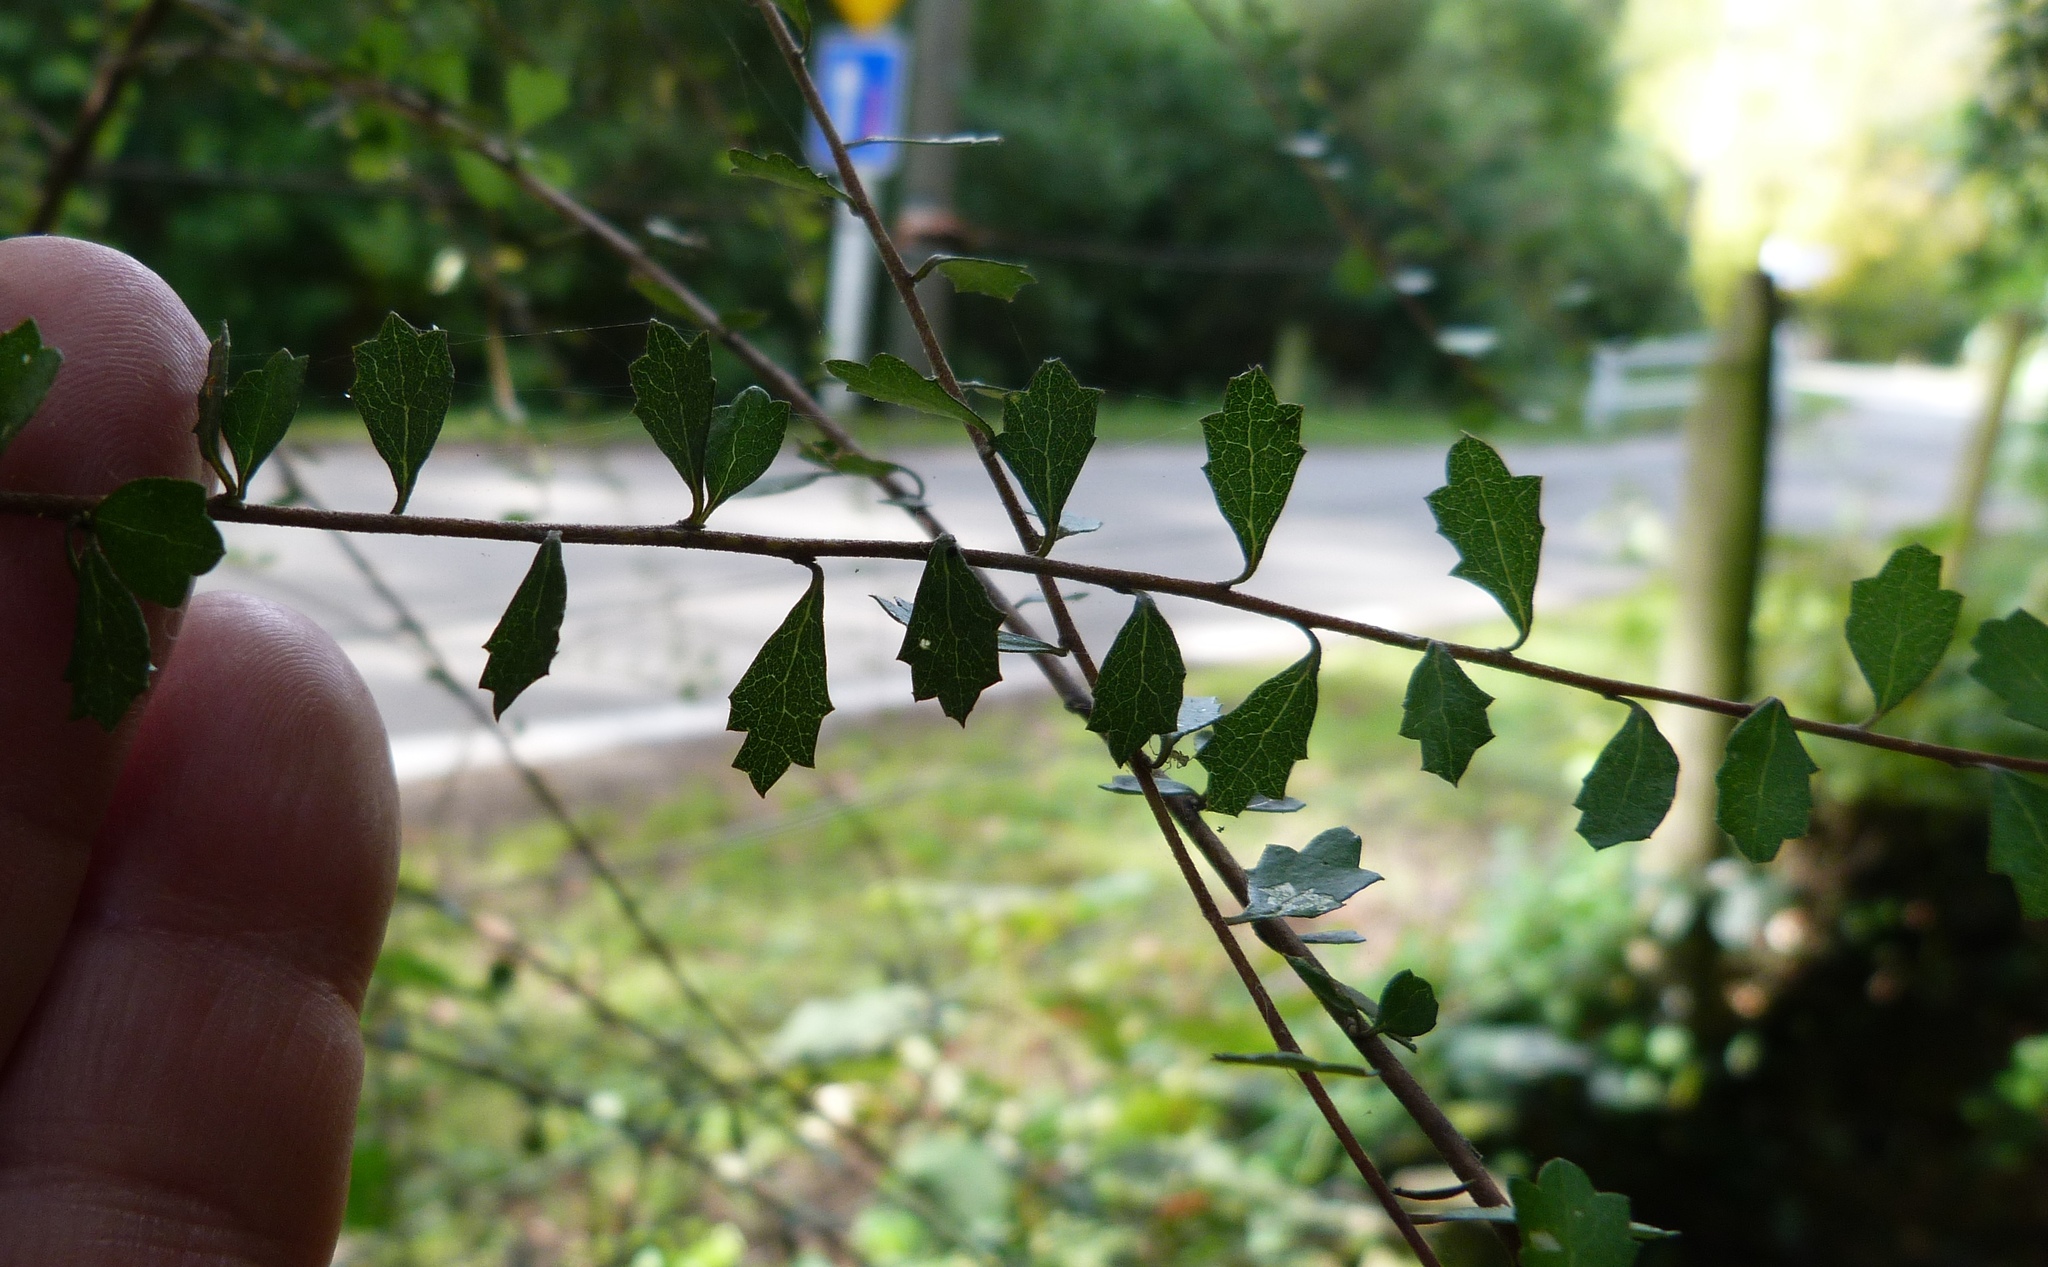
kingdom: Plantae
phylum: Tracheophyta
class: Magnoliopsida
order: Malvales
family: Malvaceae
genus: Hoheria
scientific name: Hoheria angustifolia
